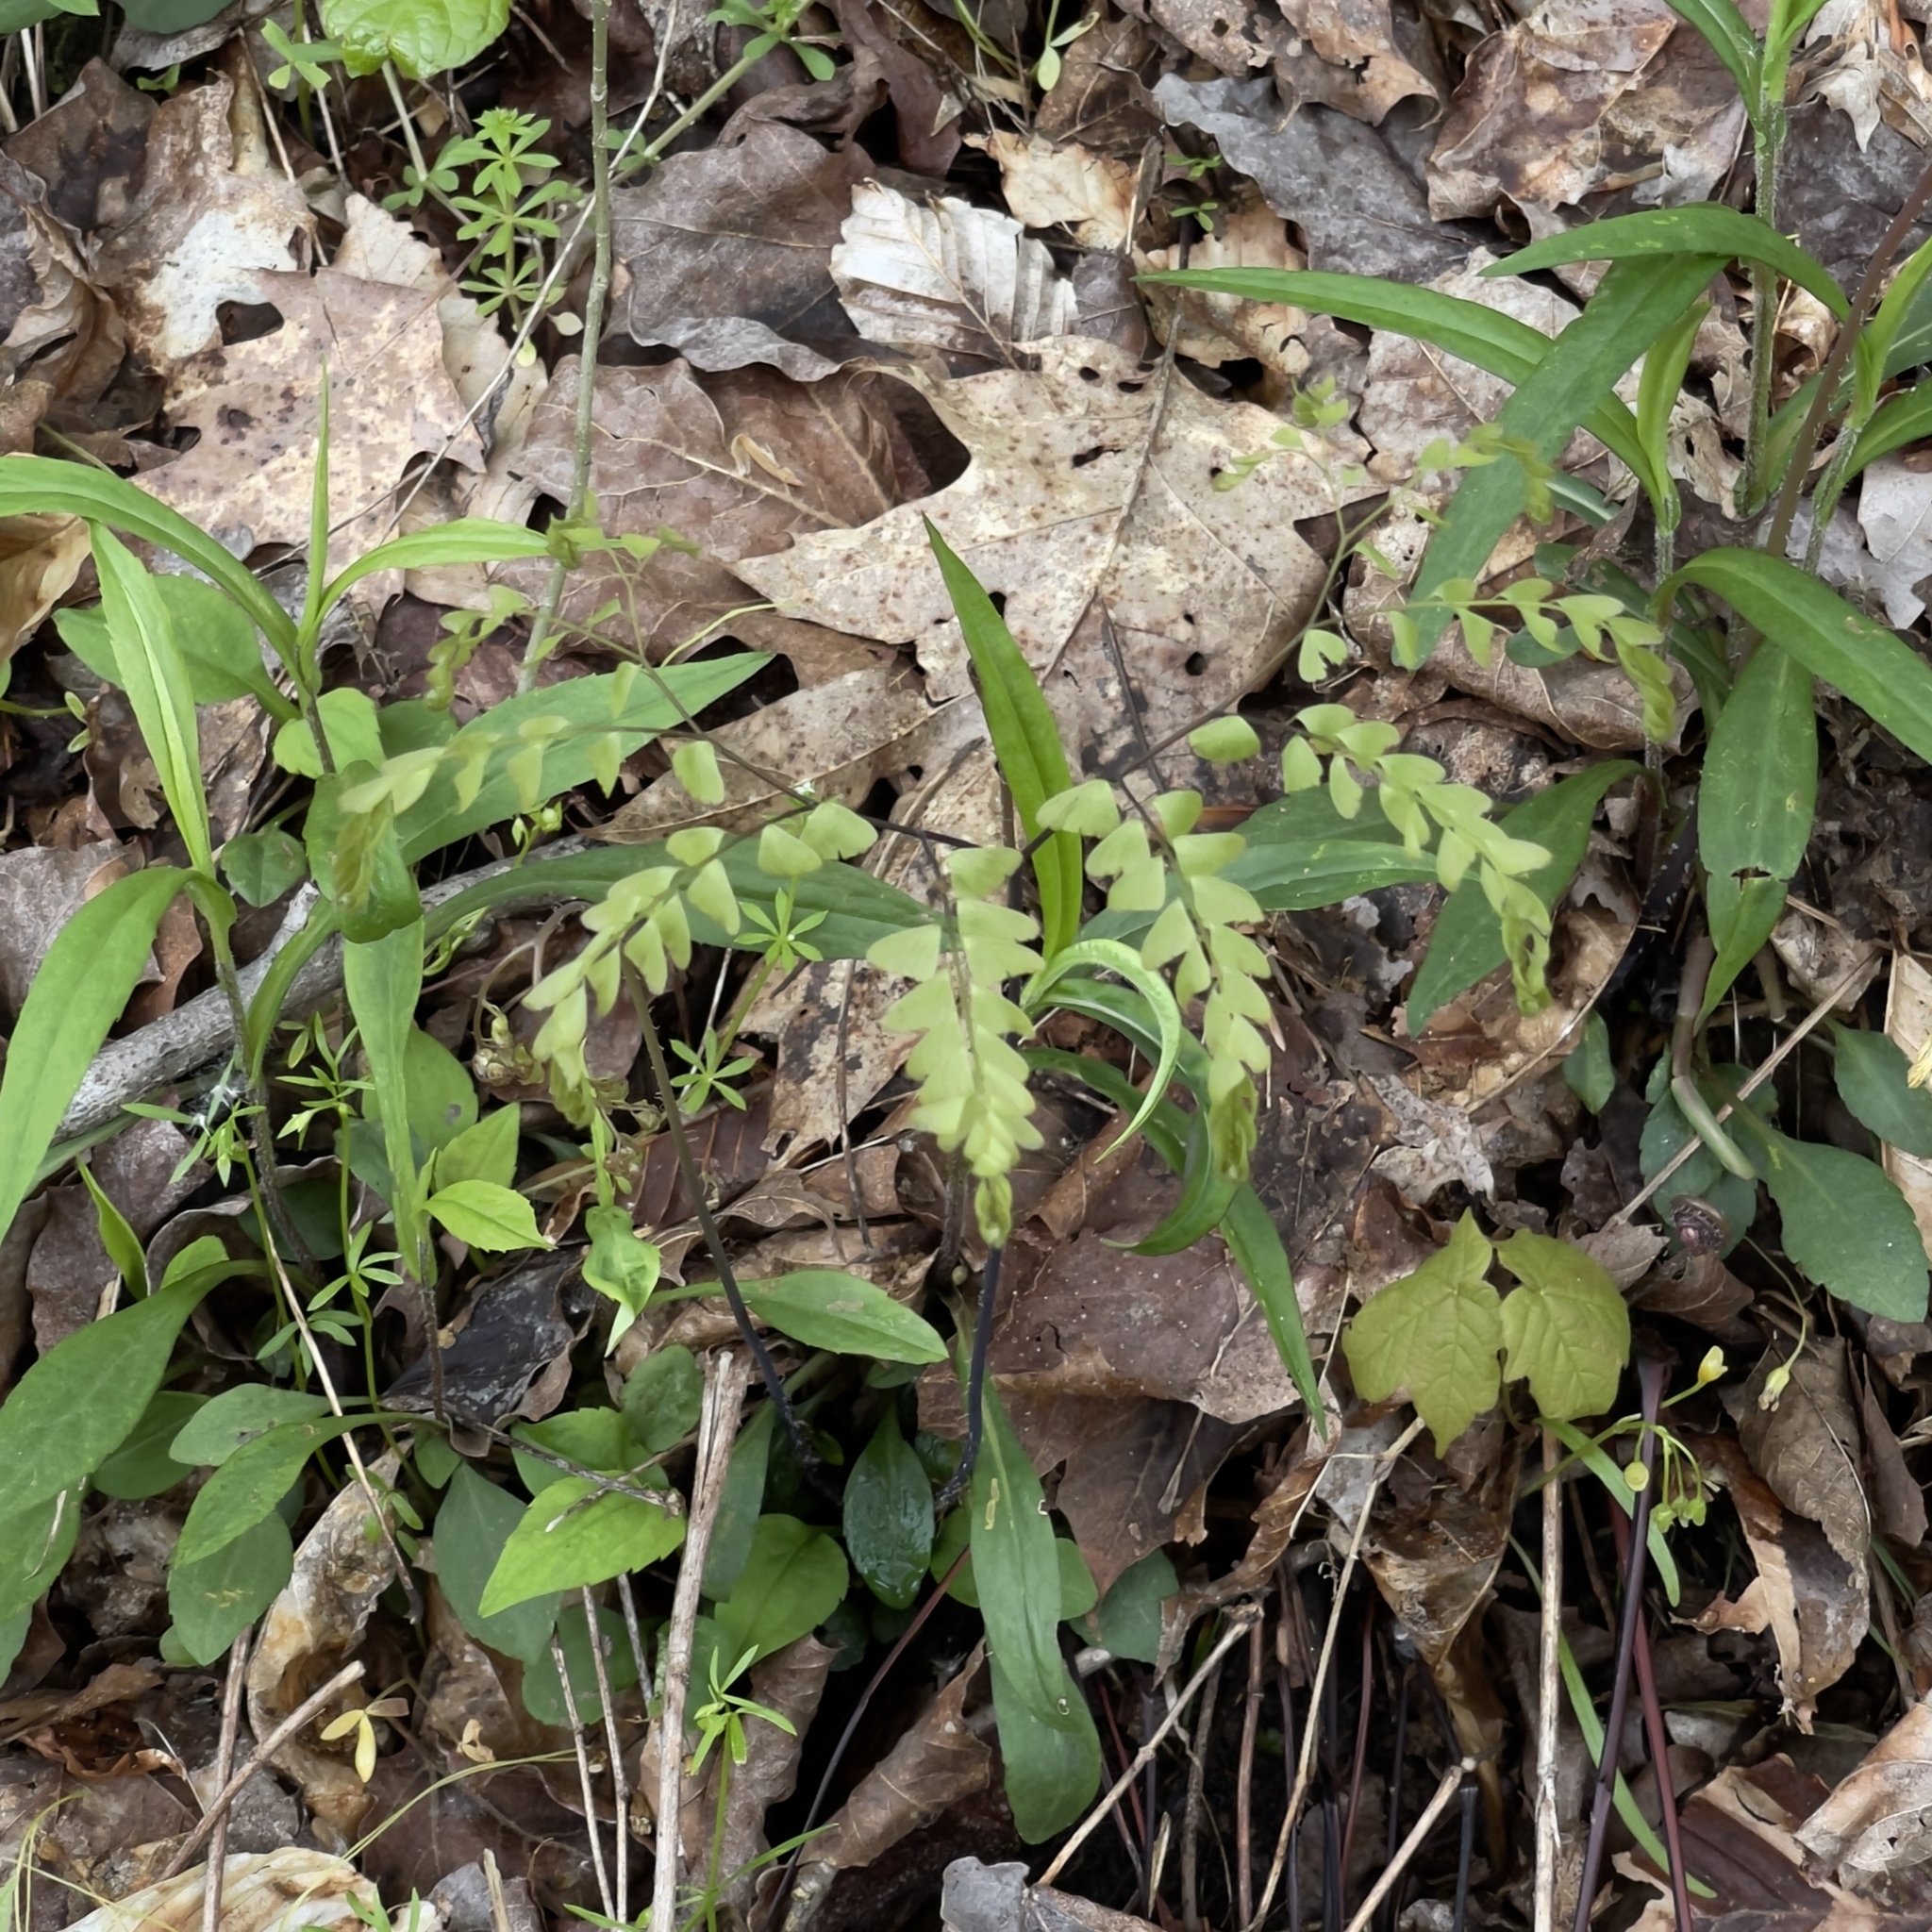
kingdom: Plantae
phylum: Tracheophyta
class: Polypodiopsida
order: Polypodiales
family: Pteridaceae
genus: Adiantum
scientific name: Adiantum pedatum
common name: Five-finger fern
